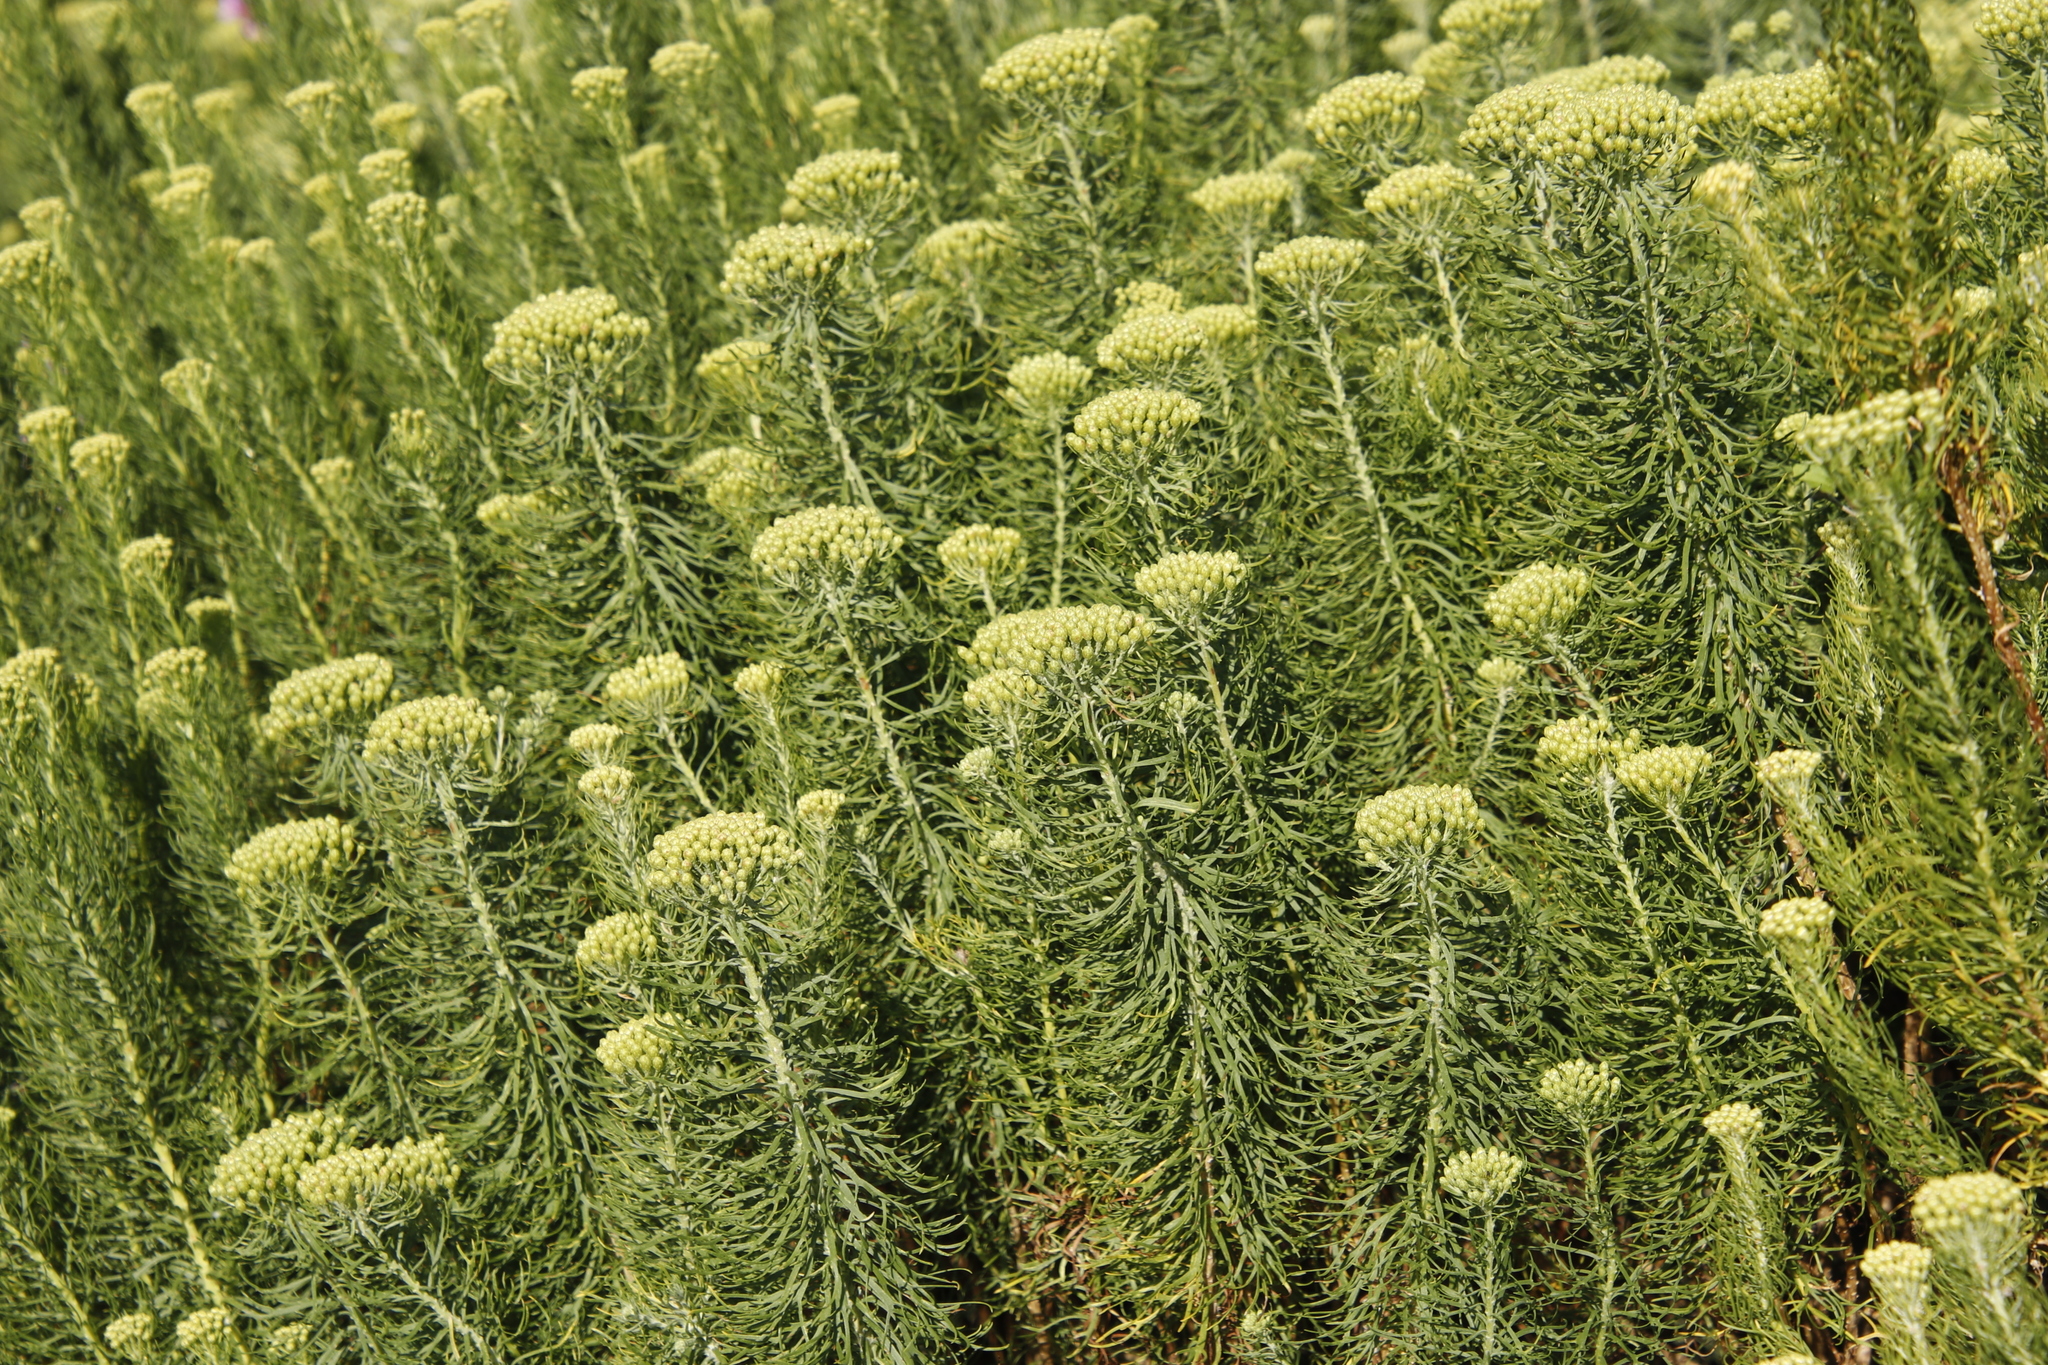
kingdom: Plantae
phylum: Tracheophyta
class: Magnoliopsida
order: Asterales
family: Asteraceae
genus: Hymenolepis
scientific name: Hymenolepis crithmifolia
